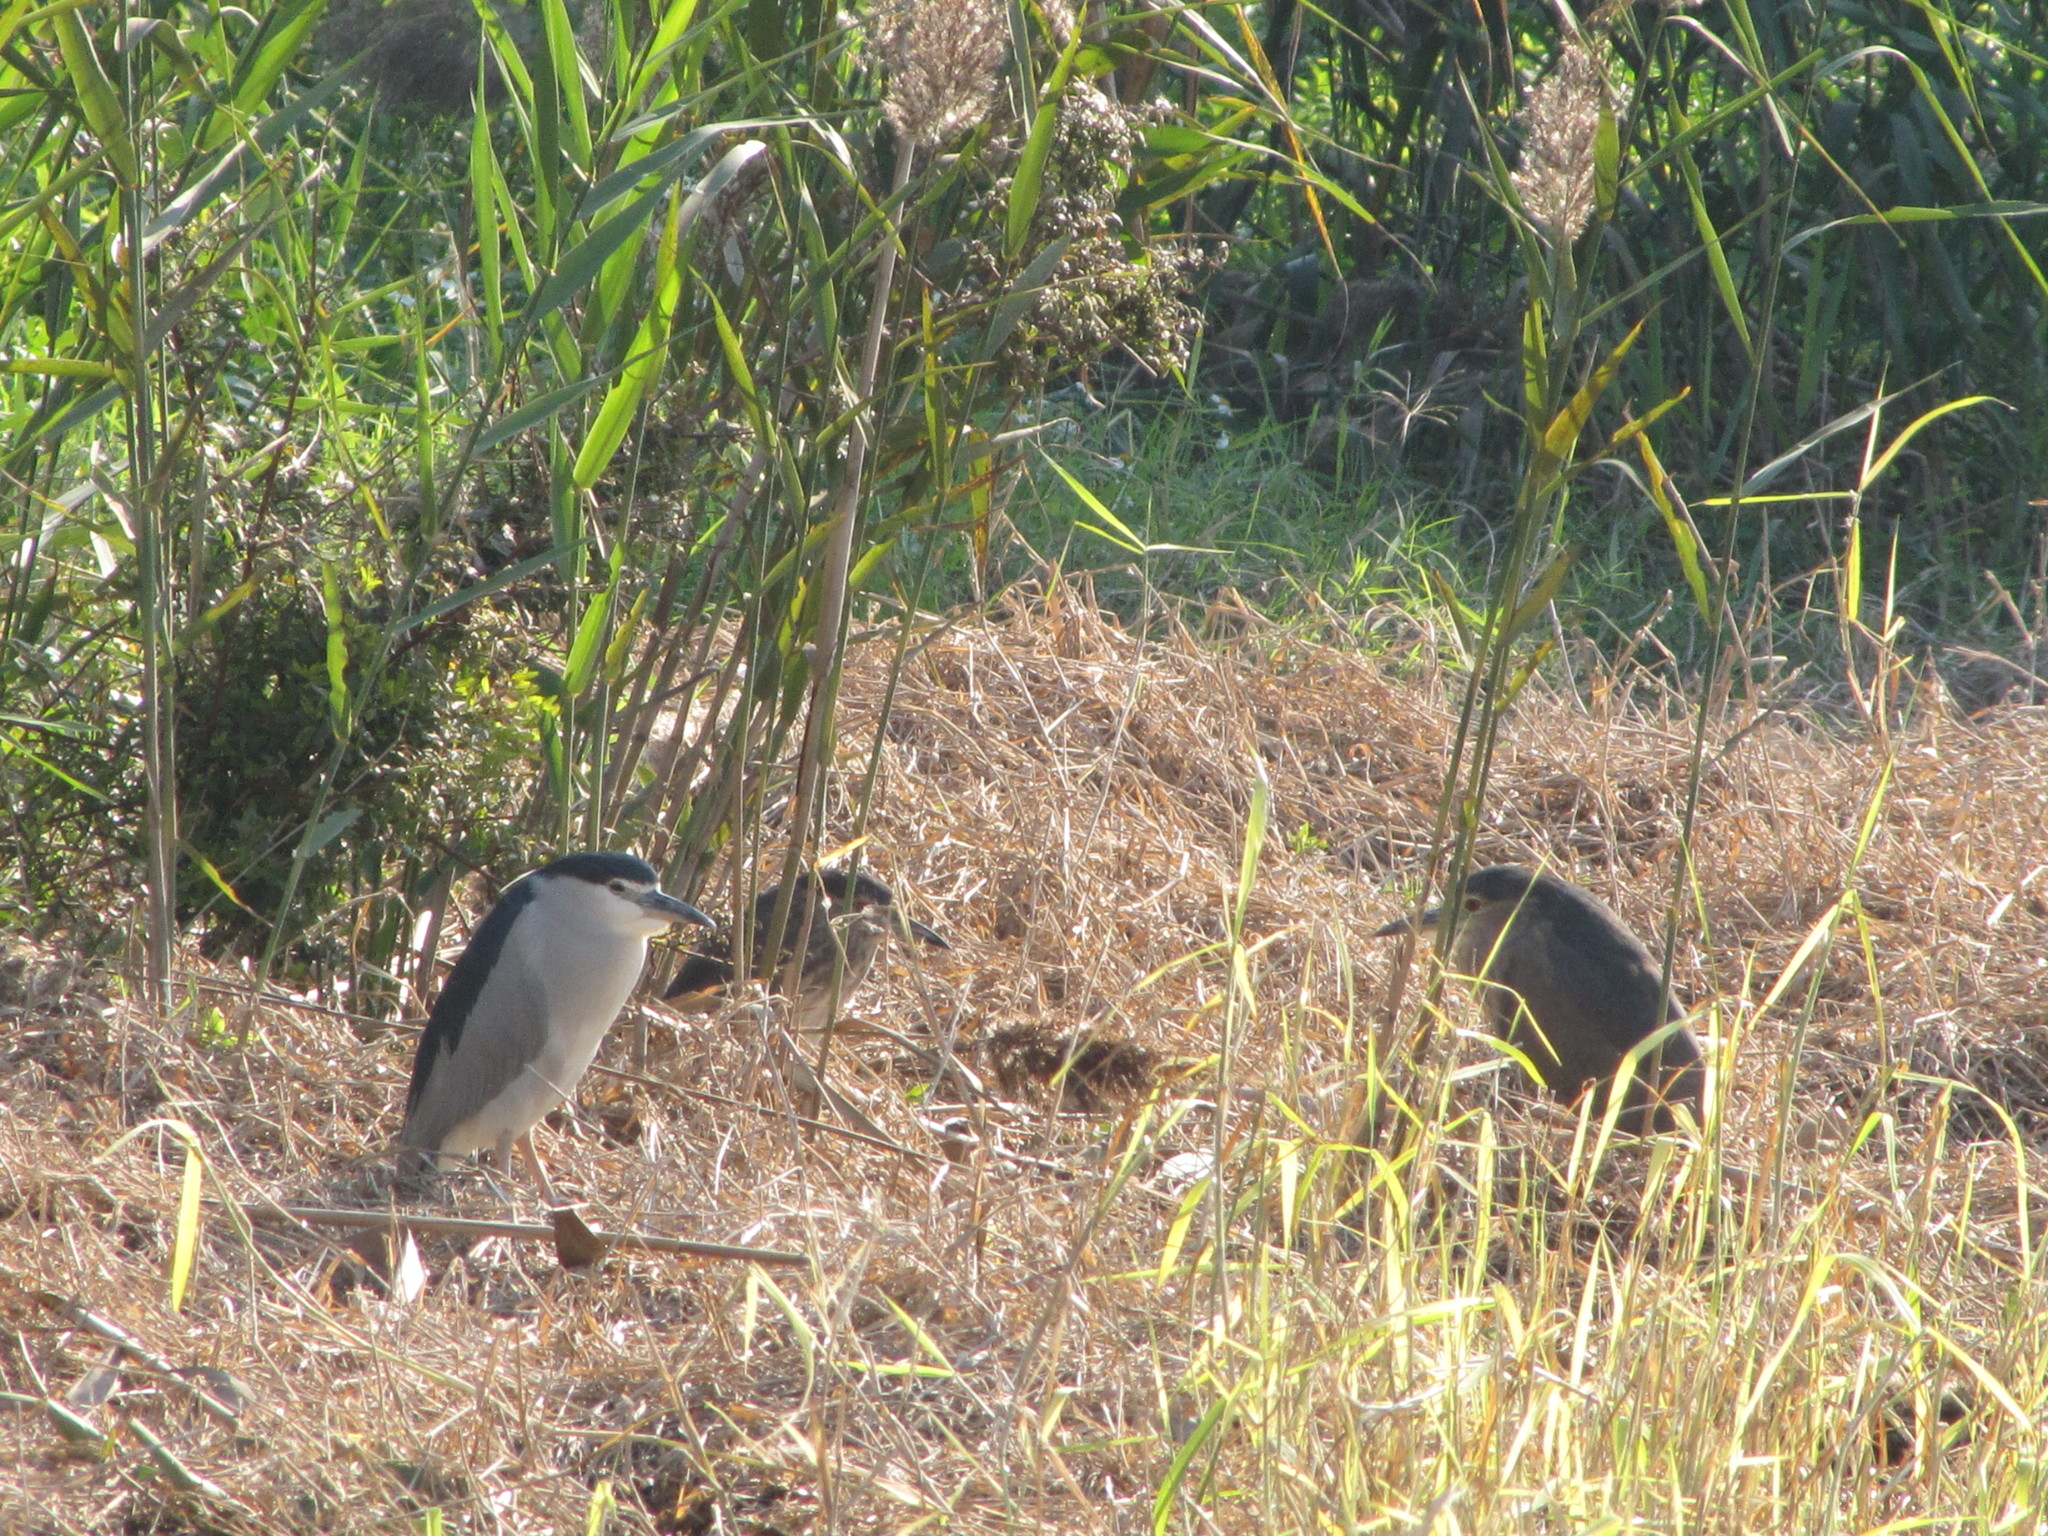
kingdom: Animalia
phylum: Chordata
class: Aves
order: Pelecaniformes
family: Ardeidae
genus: Nycticorax
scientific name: Nycticorax nycticorax
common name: Black-crowned night heron
